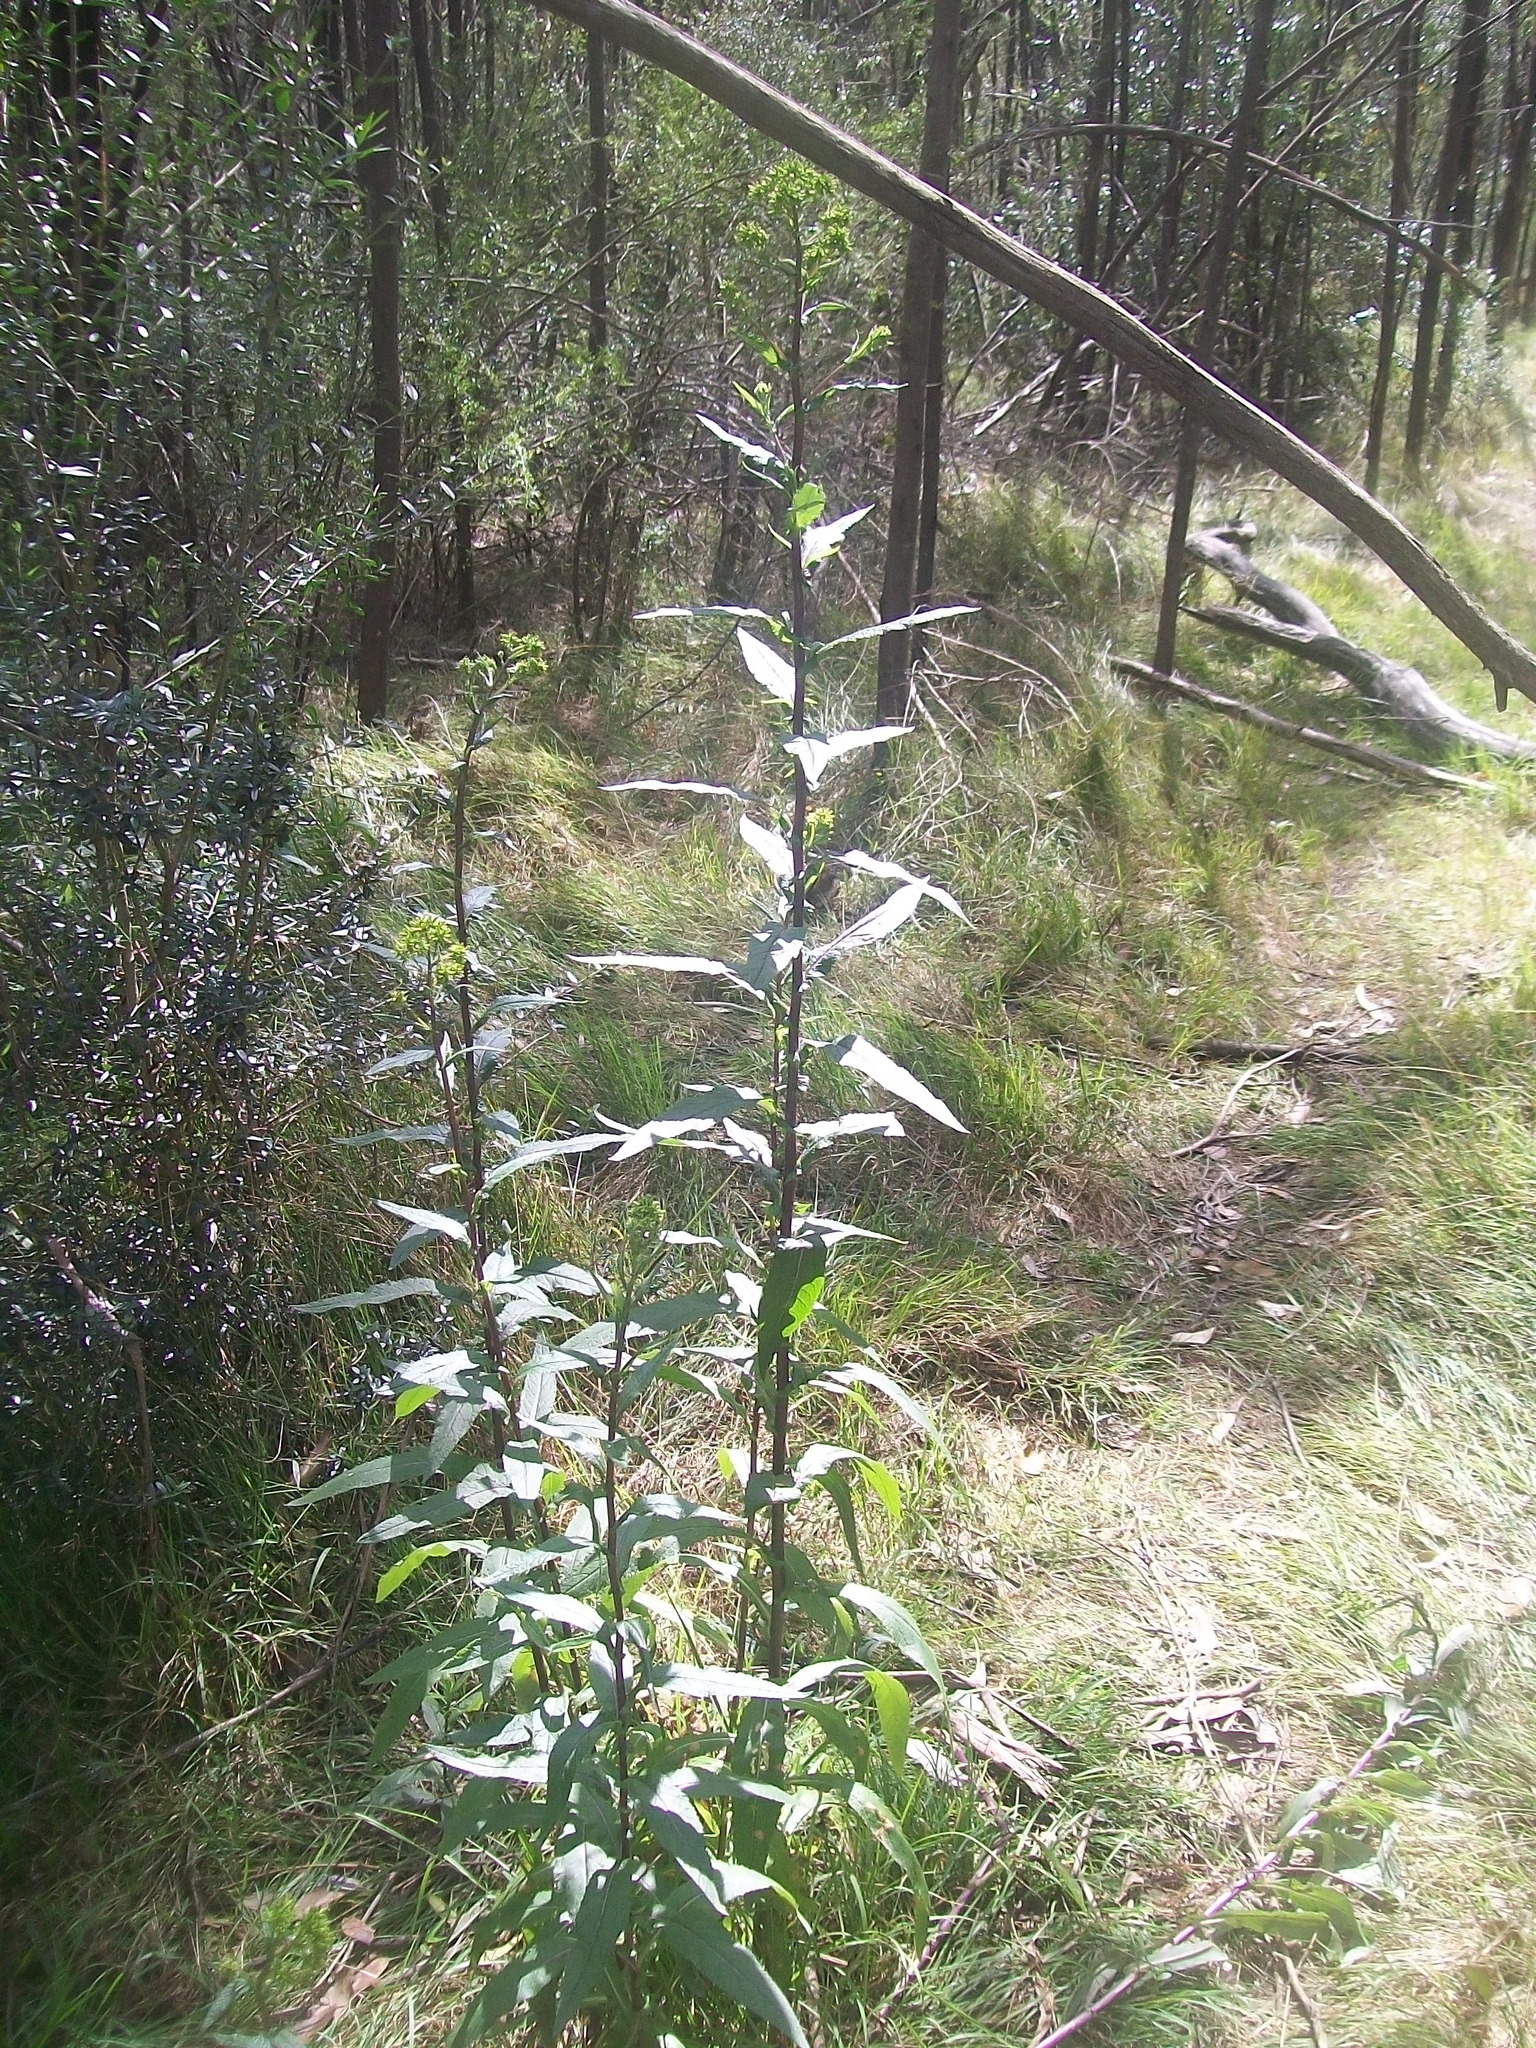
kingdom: Plantae
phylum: Tracheophyta
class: Magnoliopsida
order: Solanales
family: Solanaceae
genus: Cestrum
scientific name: Cestrum parqui
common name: Chilean cestrum
